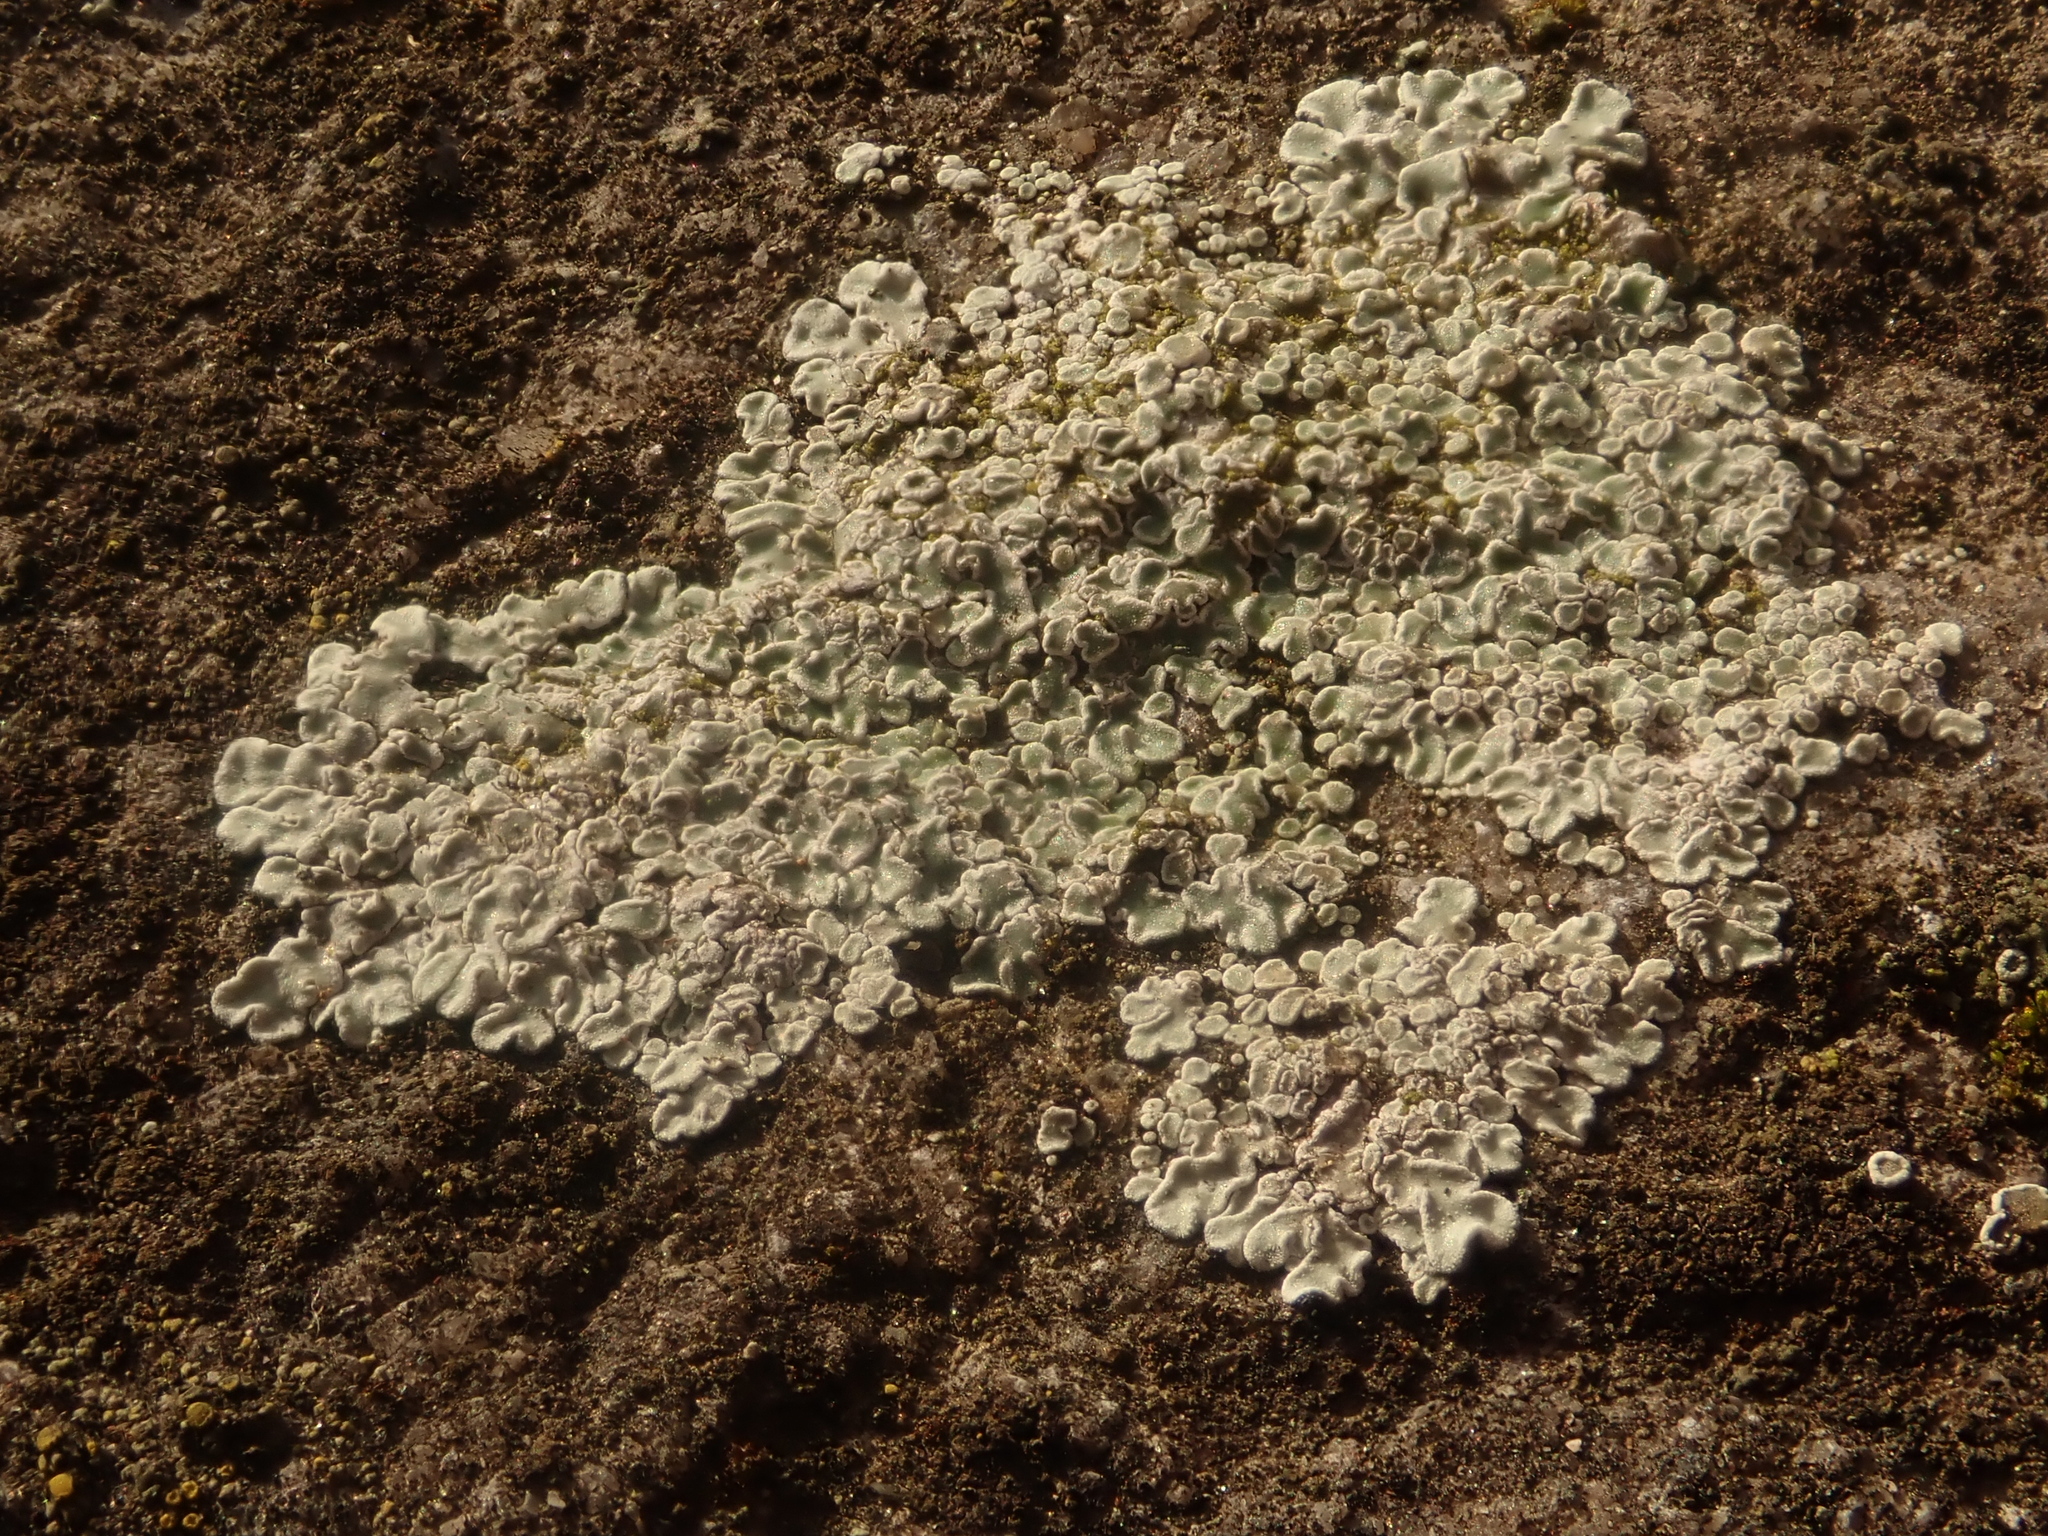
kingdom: Fungi
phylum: Ascomycota
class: Lecanoromycetes
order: Lecanorales
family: Lecanoraceae
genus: Protoparmeliopsis
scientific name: Protoparmeliopsis muralis
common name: Stonewall rim lichen
